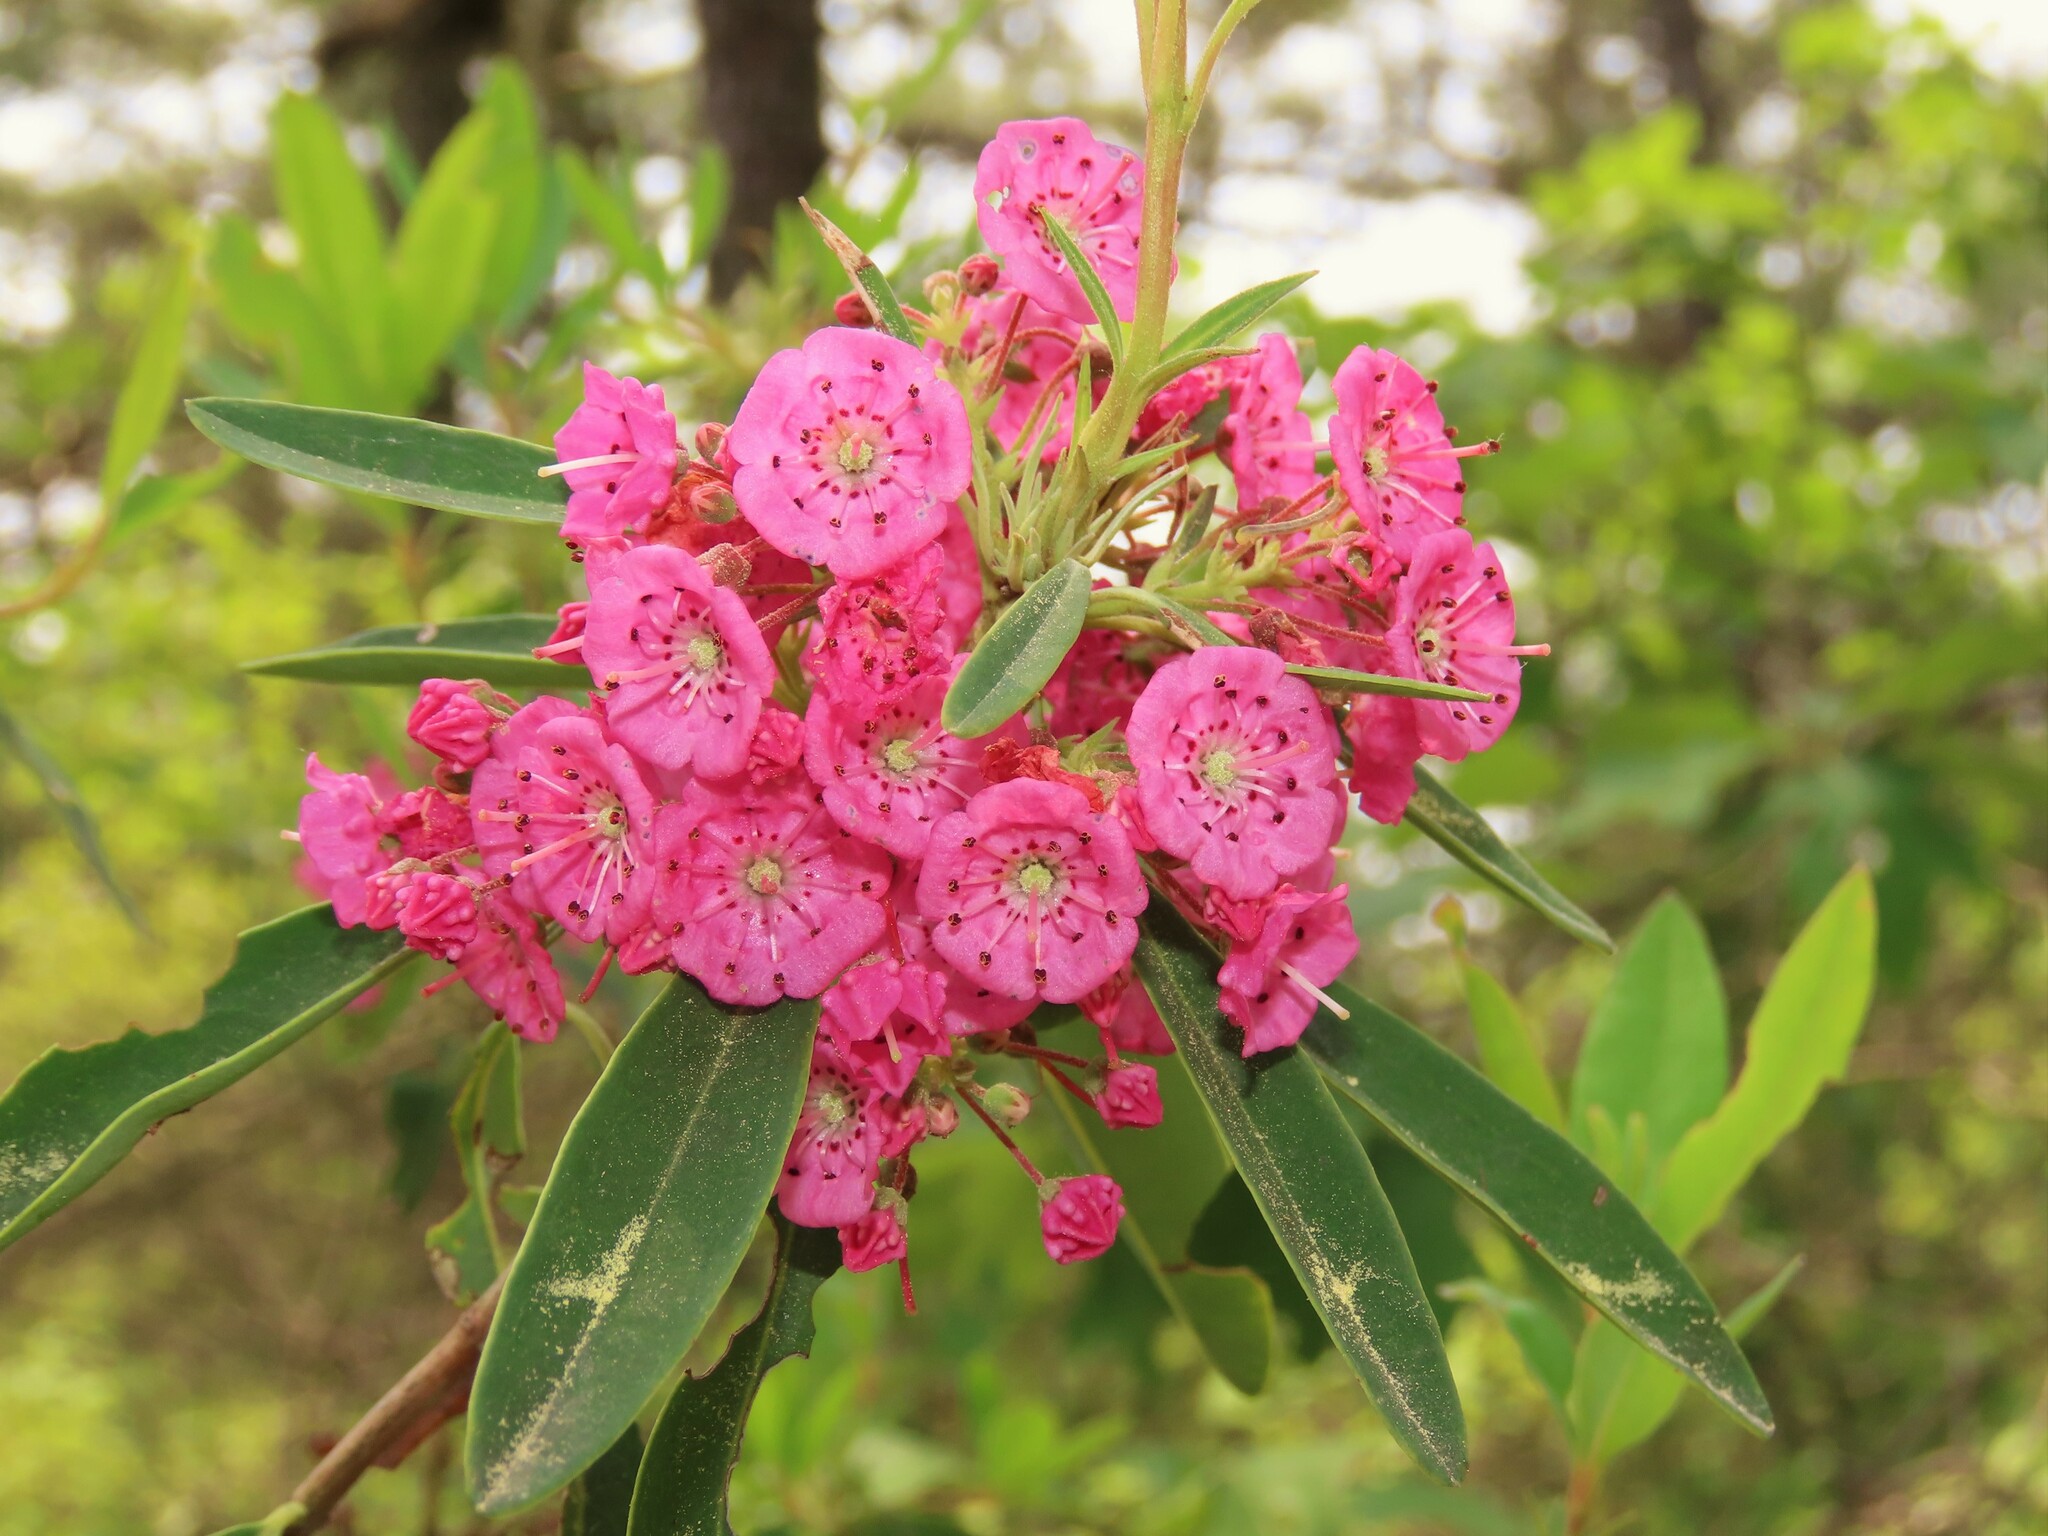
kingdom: Plantae
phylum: Tracheophyta
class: Magnoliopsida
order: Ericales
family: Ericaceae
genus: Kalmia
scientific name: Kalmia angustifolia
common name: Sheep-laurel
